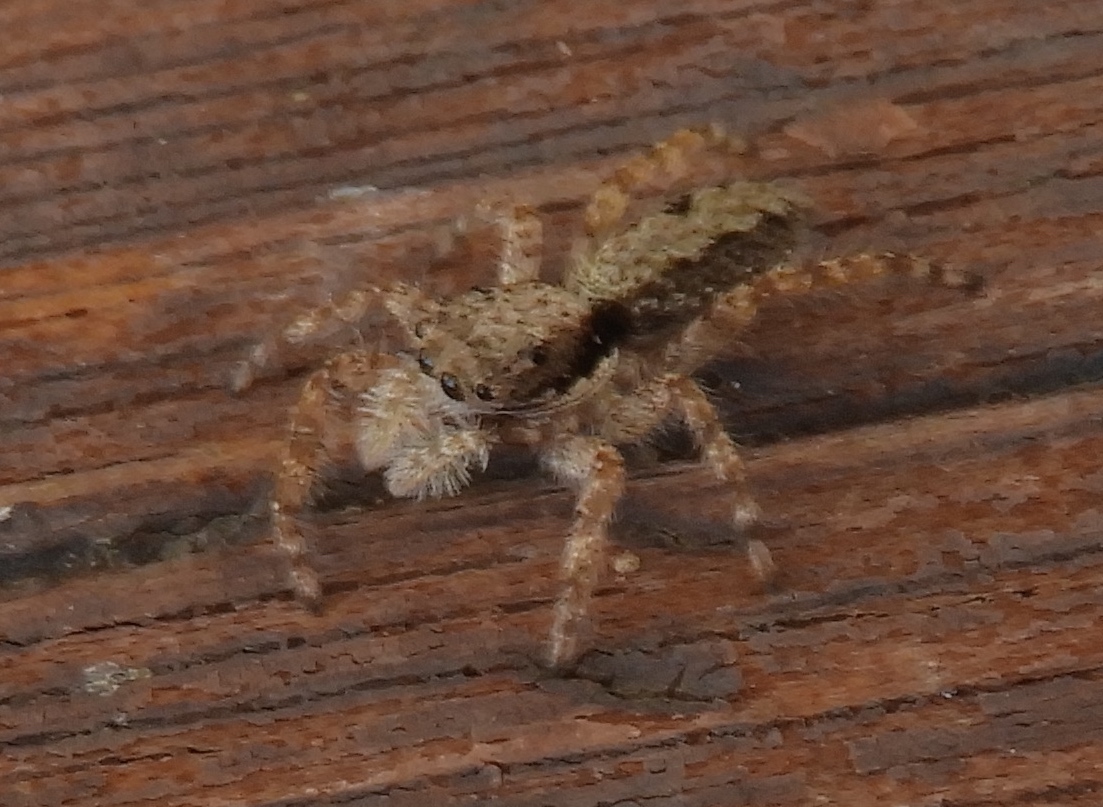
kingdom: Animalia
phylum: Arthropoda
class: Arachnida
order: Araneae
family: Salticidae
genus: Balmaceda
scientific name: Balmaceda
